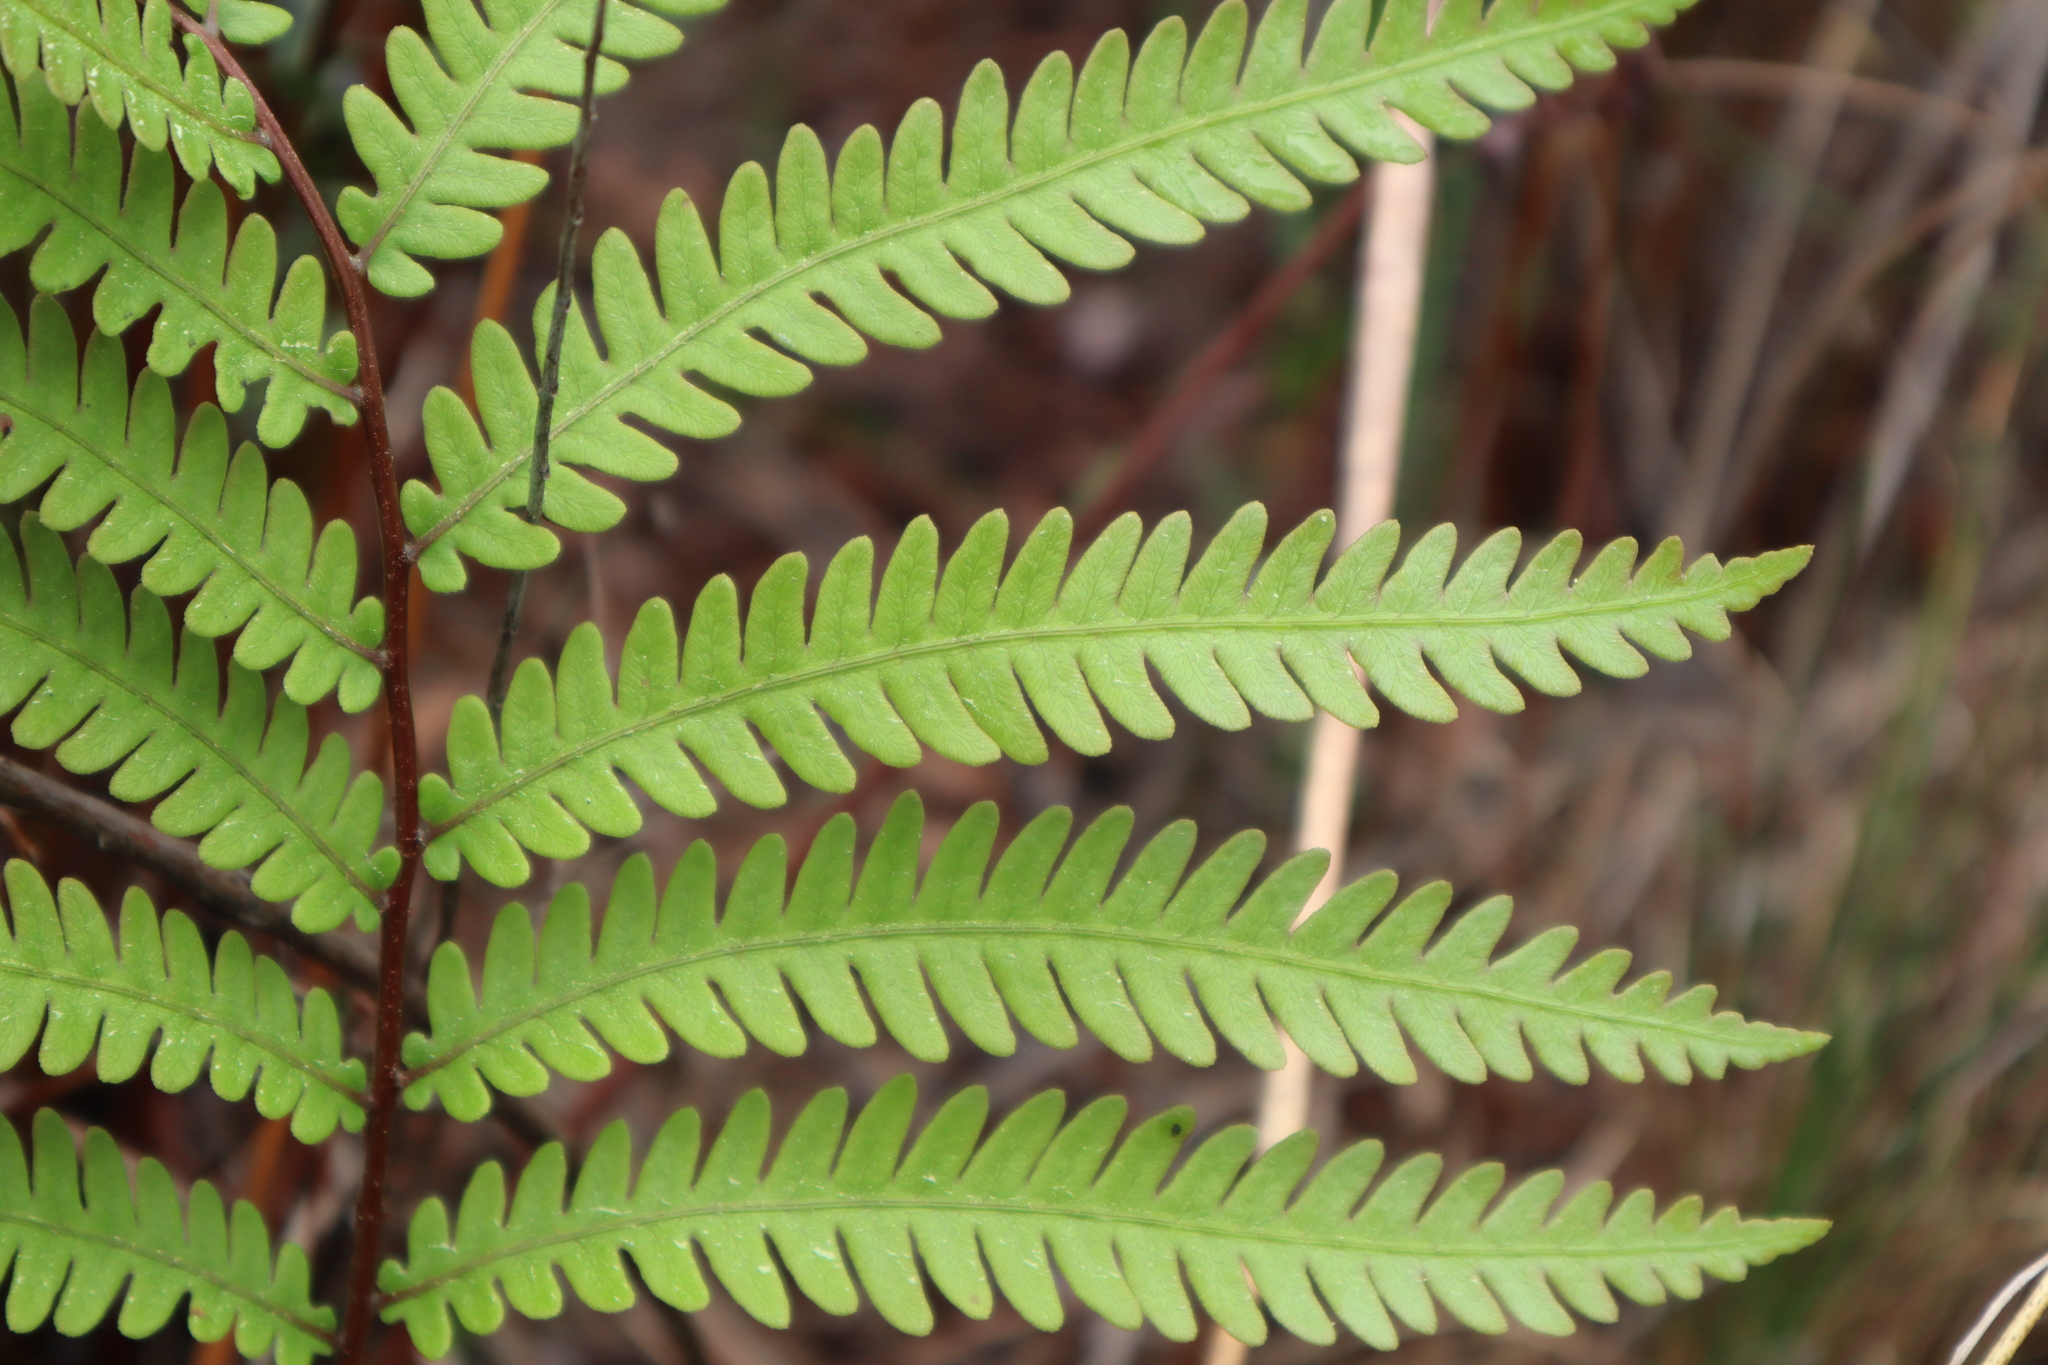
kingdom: Plantae
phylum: Tracheophyta
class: Polypodiopsida
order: Polypodiales
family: Blechnaceae
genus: Anchistea
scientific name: Anchistea virginica
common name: Virginia chain fern
